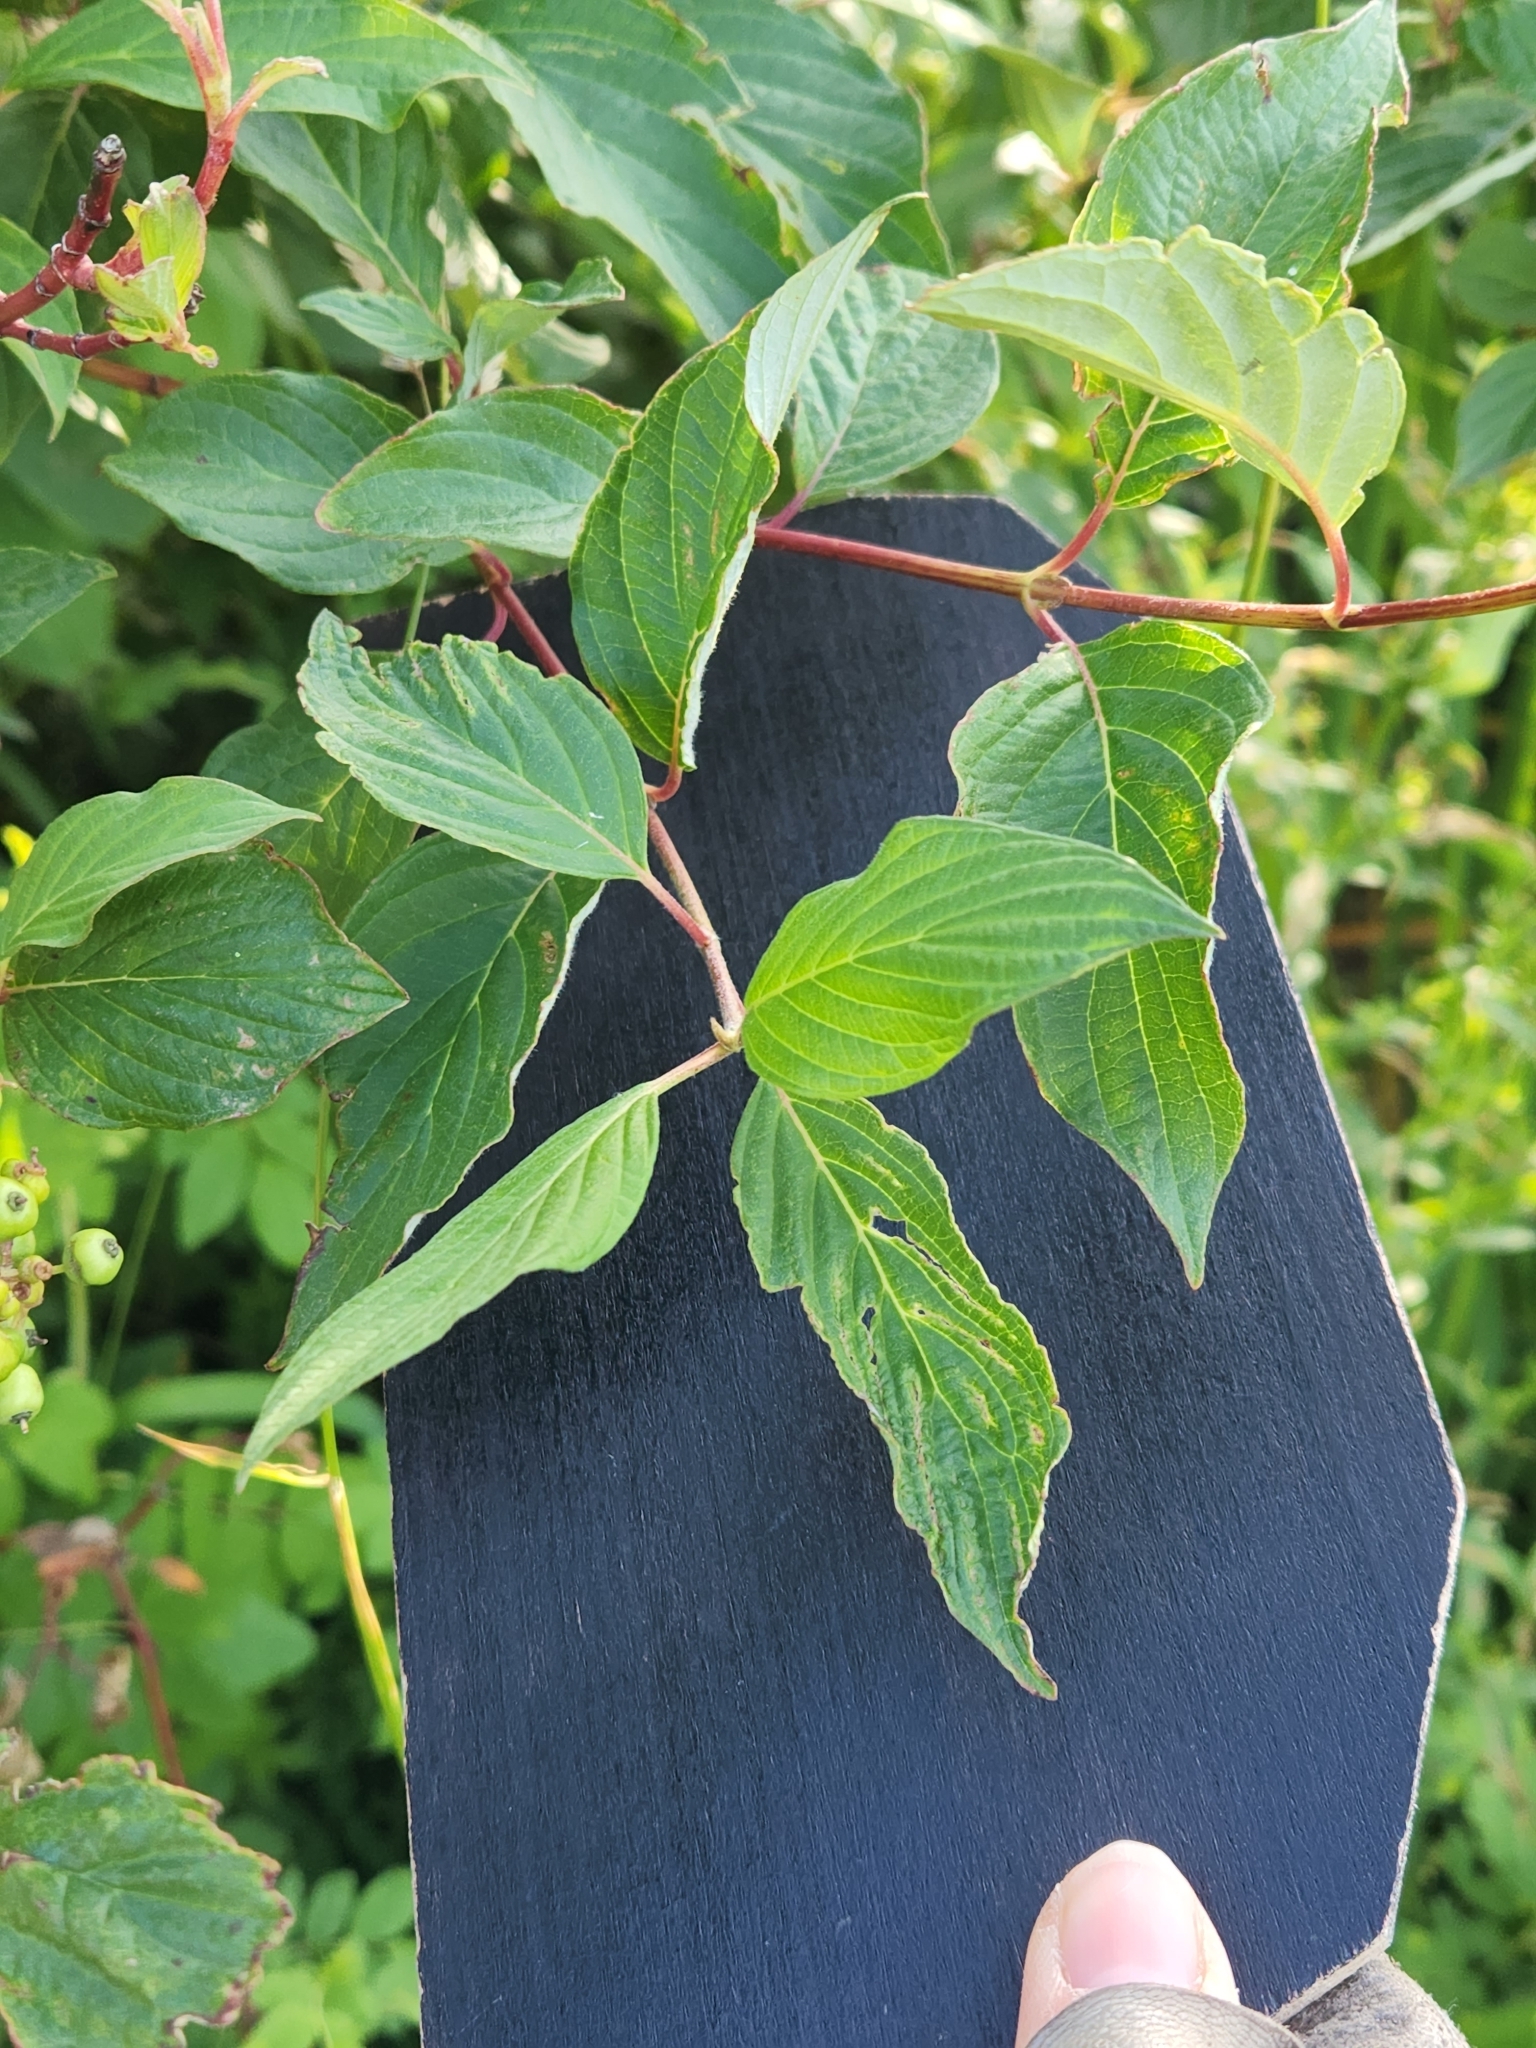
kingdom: Plantae
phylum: Tracheophyta
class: Magnoliopsida
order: Cornales
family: Cornaceae
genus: Cornus
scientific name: Cornus sericea
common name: Red-osier dogwood
